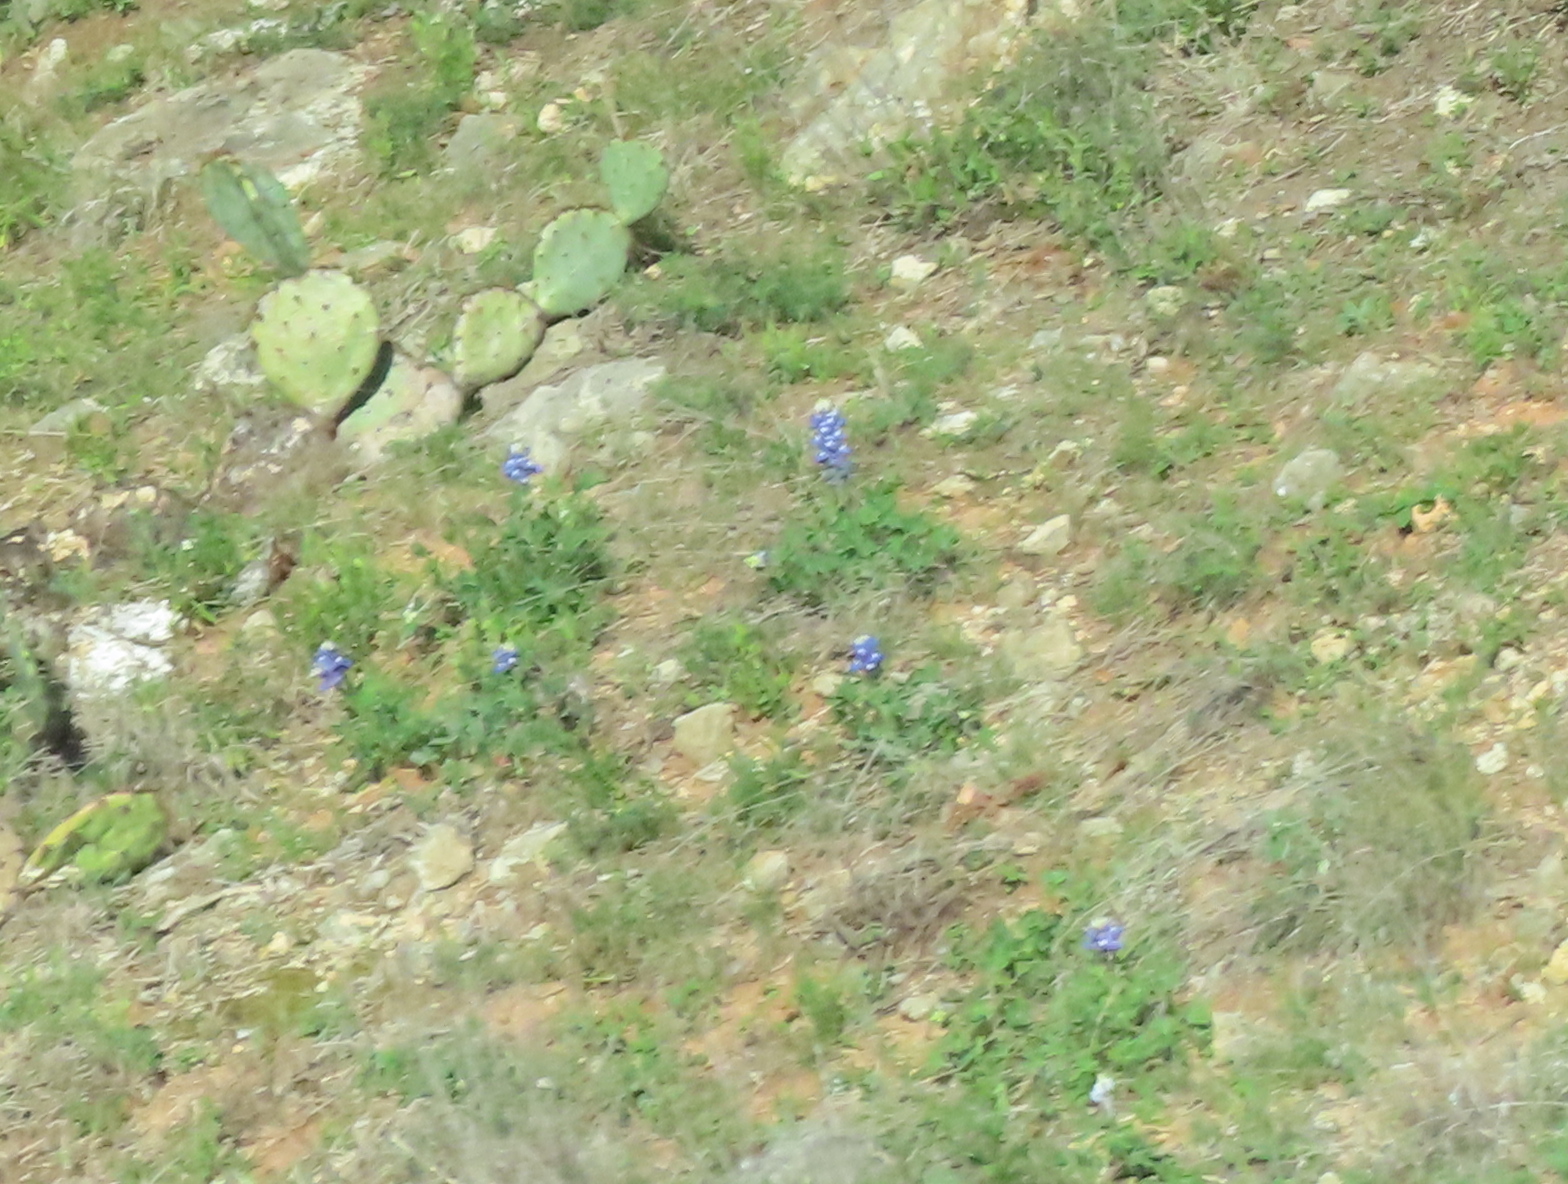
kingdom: Plantae
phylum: Tracheophyta
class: Magnoliopsida
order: Fabales
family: Fabaceae
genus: Lupinus
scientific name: Lupinus texensis
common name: Texas bluebonnet
